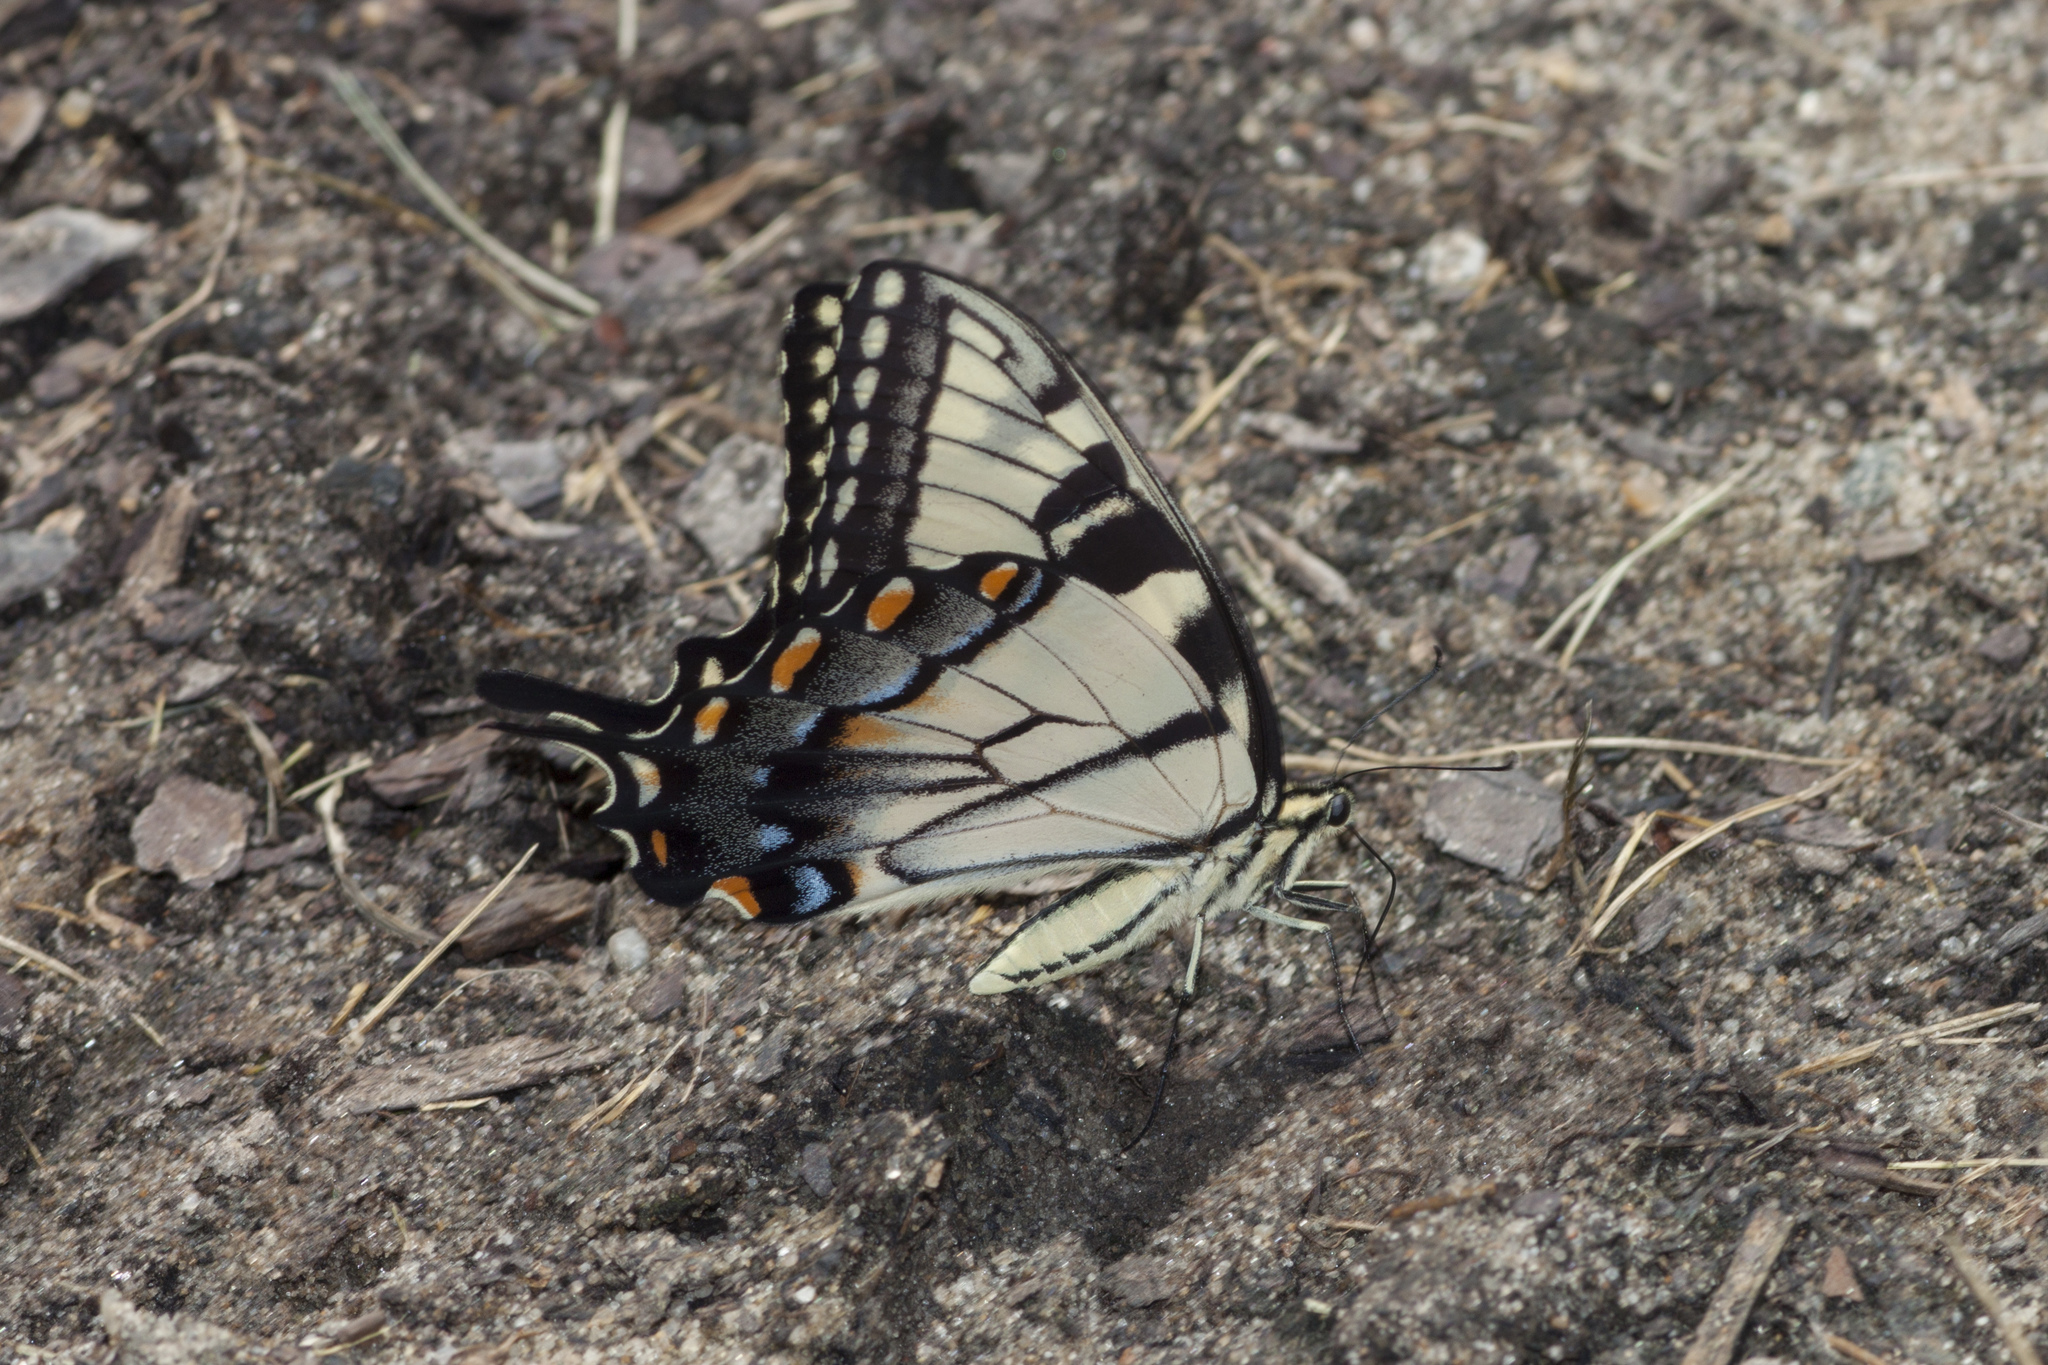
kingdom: Animalia
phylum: Arthropoda
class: Insecta
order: Lepidoptera
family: Papilionidae
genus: Papilio
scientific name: Papilio glaucus
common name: Tiger swallowtail
